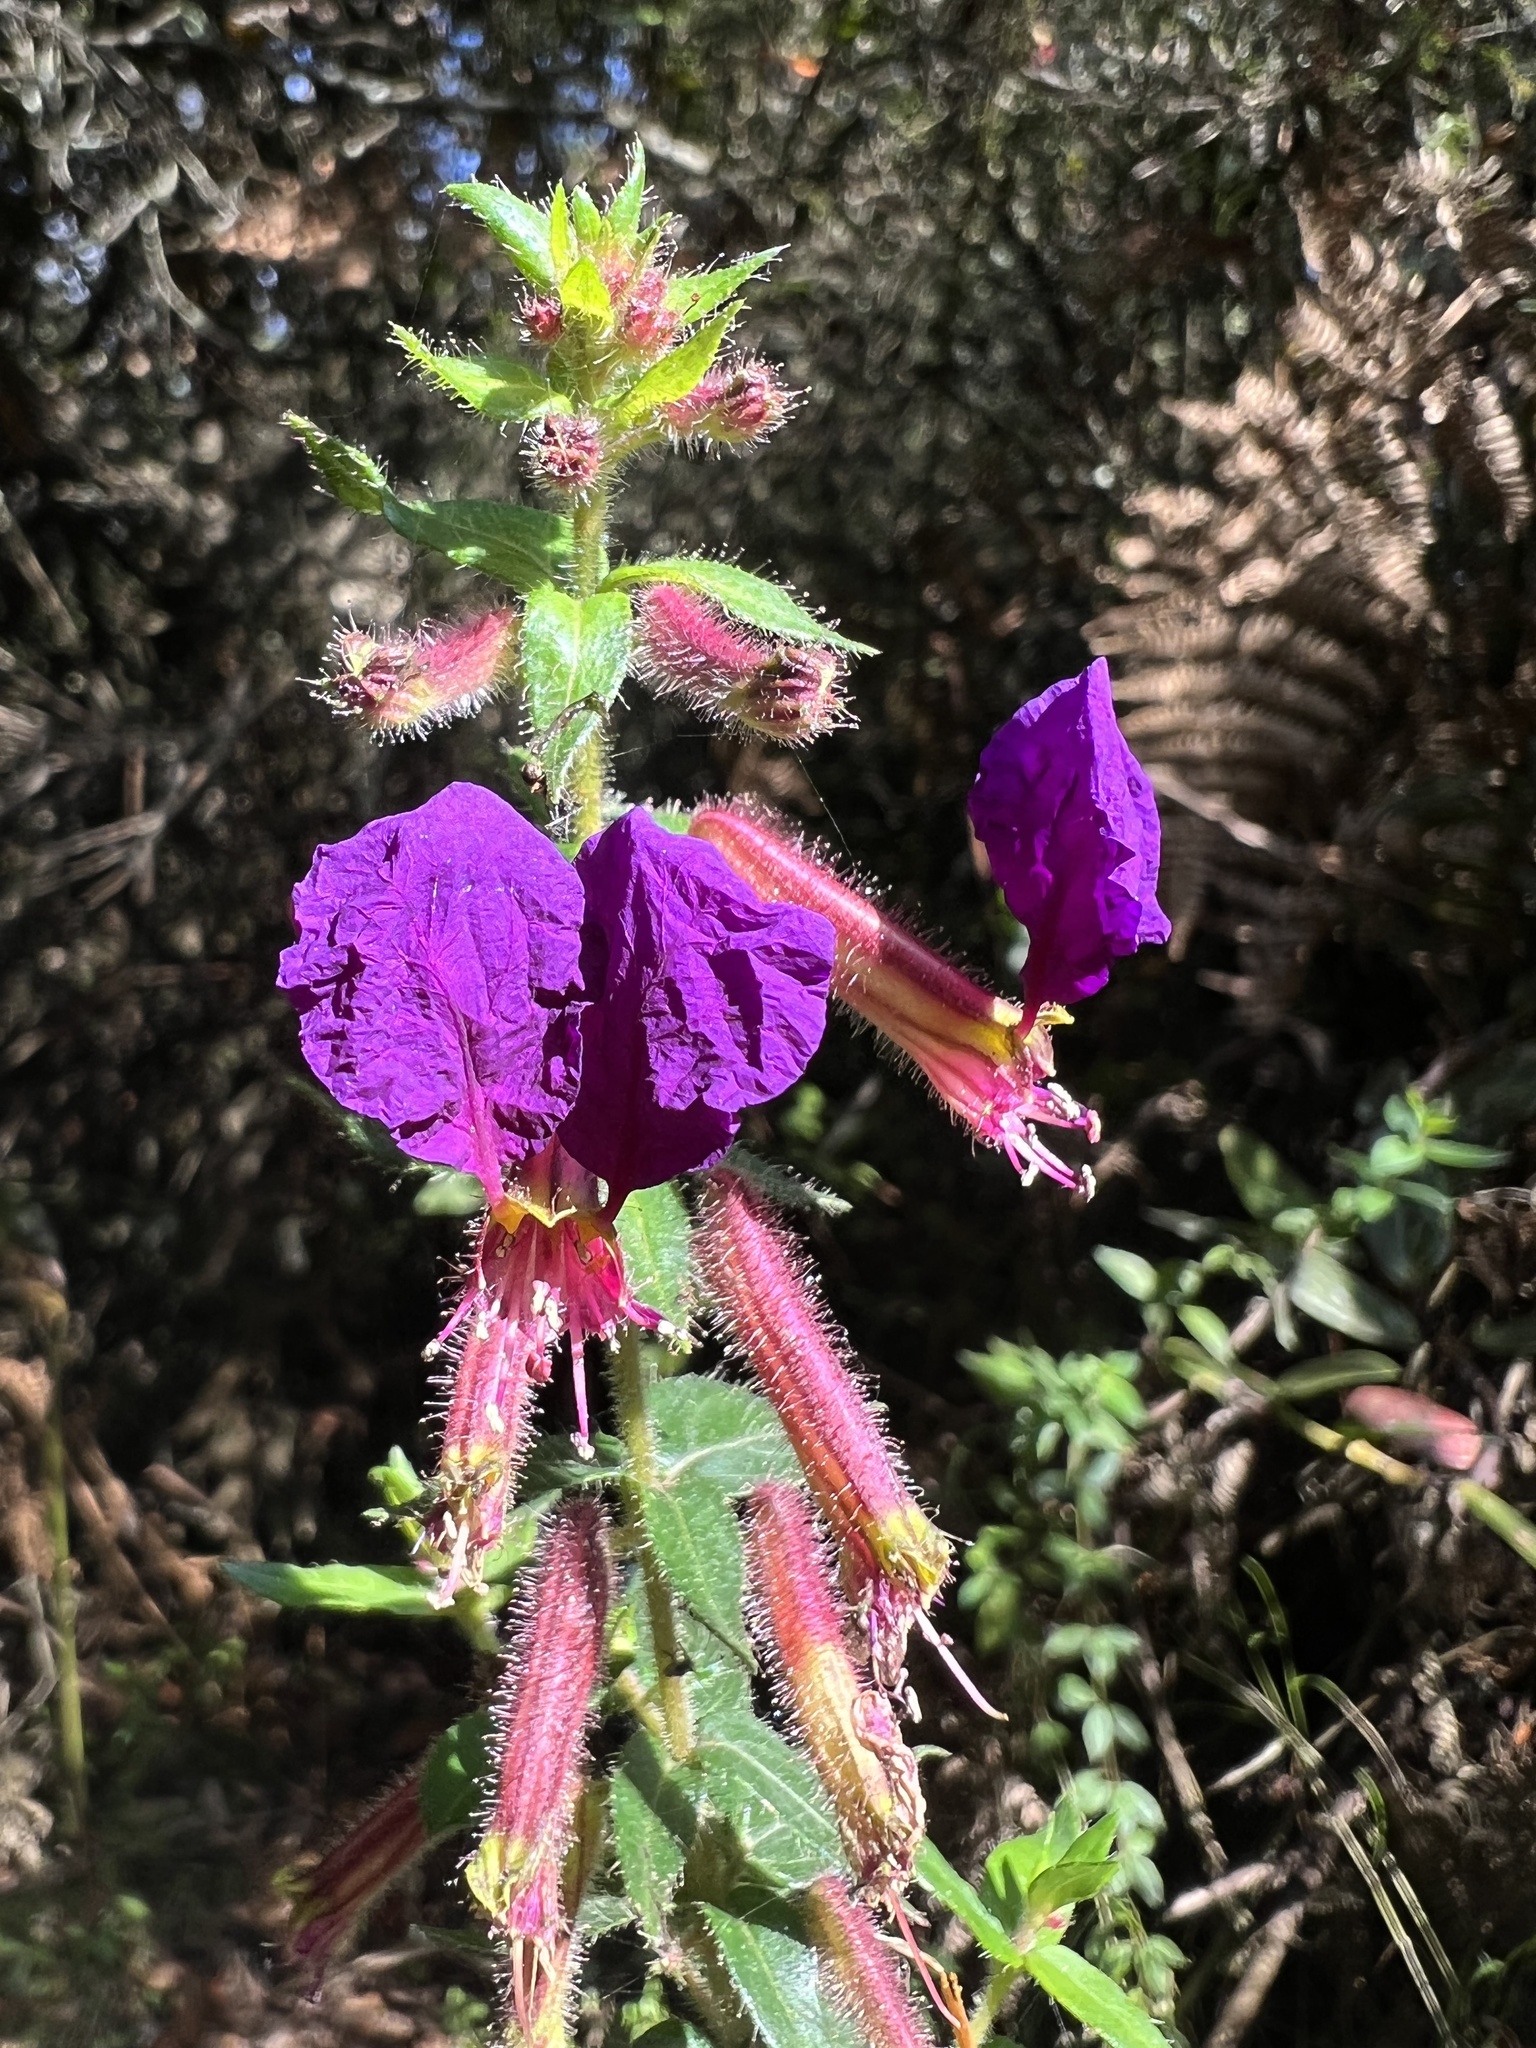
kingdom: Plantae
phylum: Tracheophyta
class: Magnoliopsida
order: Myrtales
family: Lythraceae
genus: Cuphea
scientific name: Cuphea dipetala
